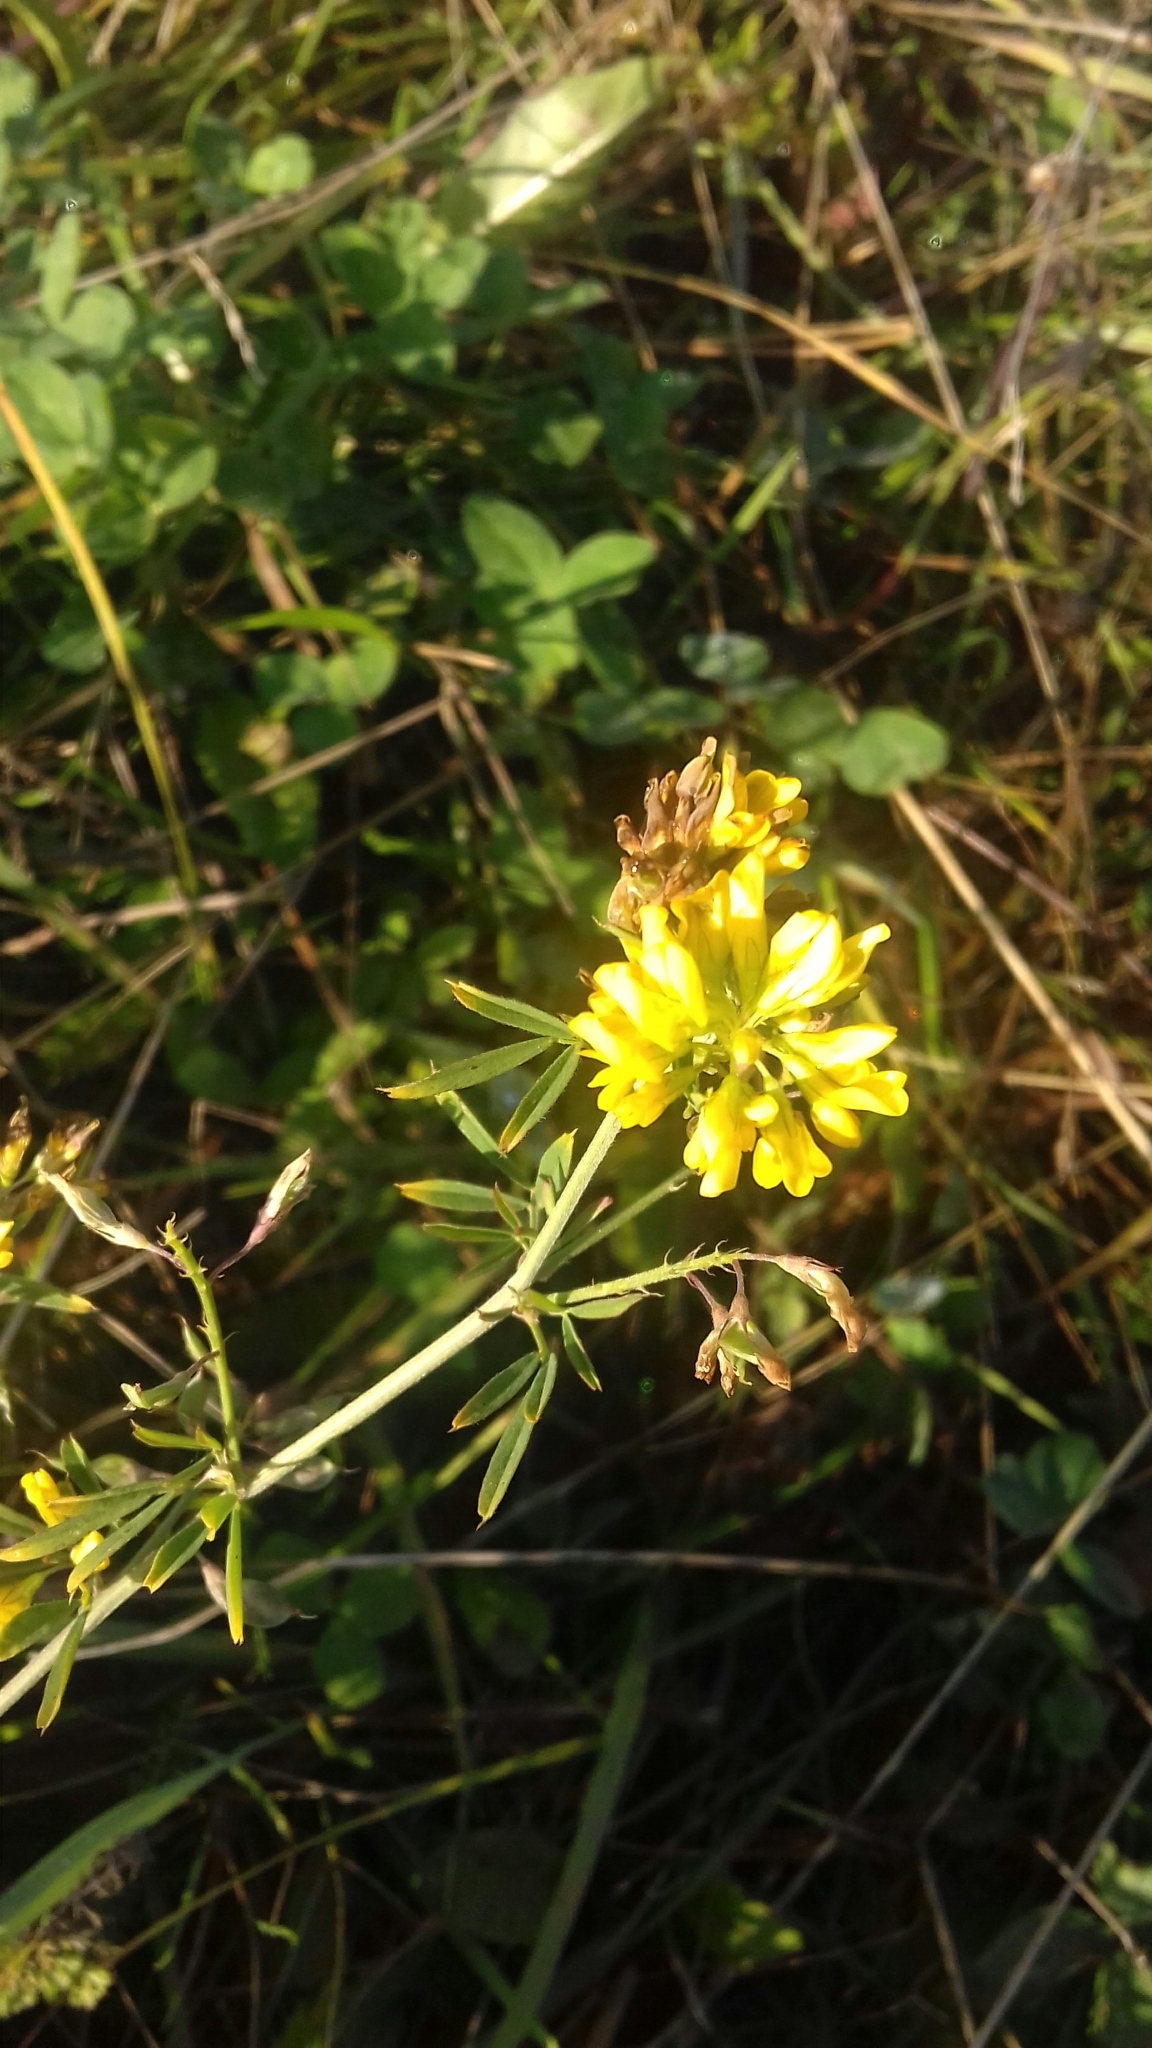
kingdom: Plantae
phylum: Tracheophyta
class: Magnoliopsida
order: Fabales
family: Fabaceae
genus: Medicago
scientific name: Medicago falcata
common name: Sickle medick
